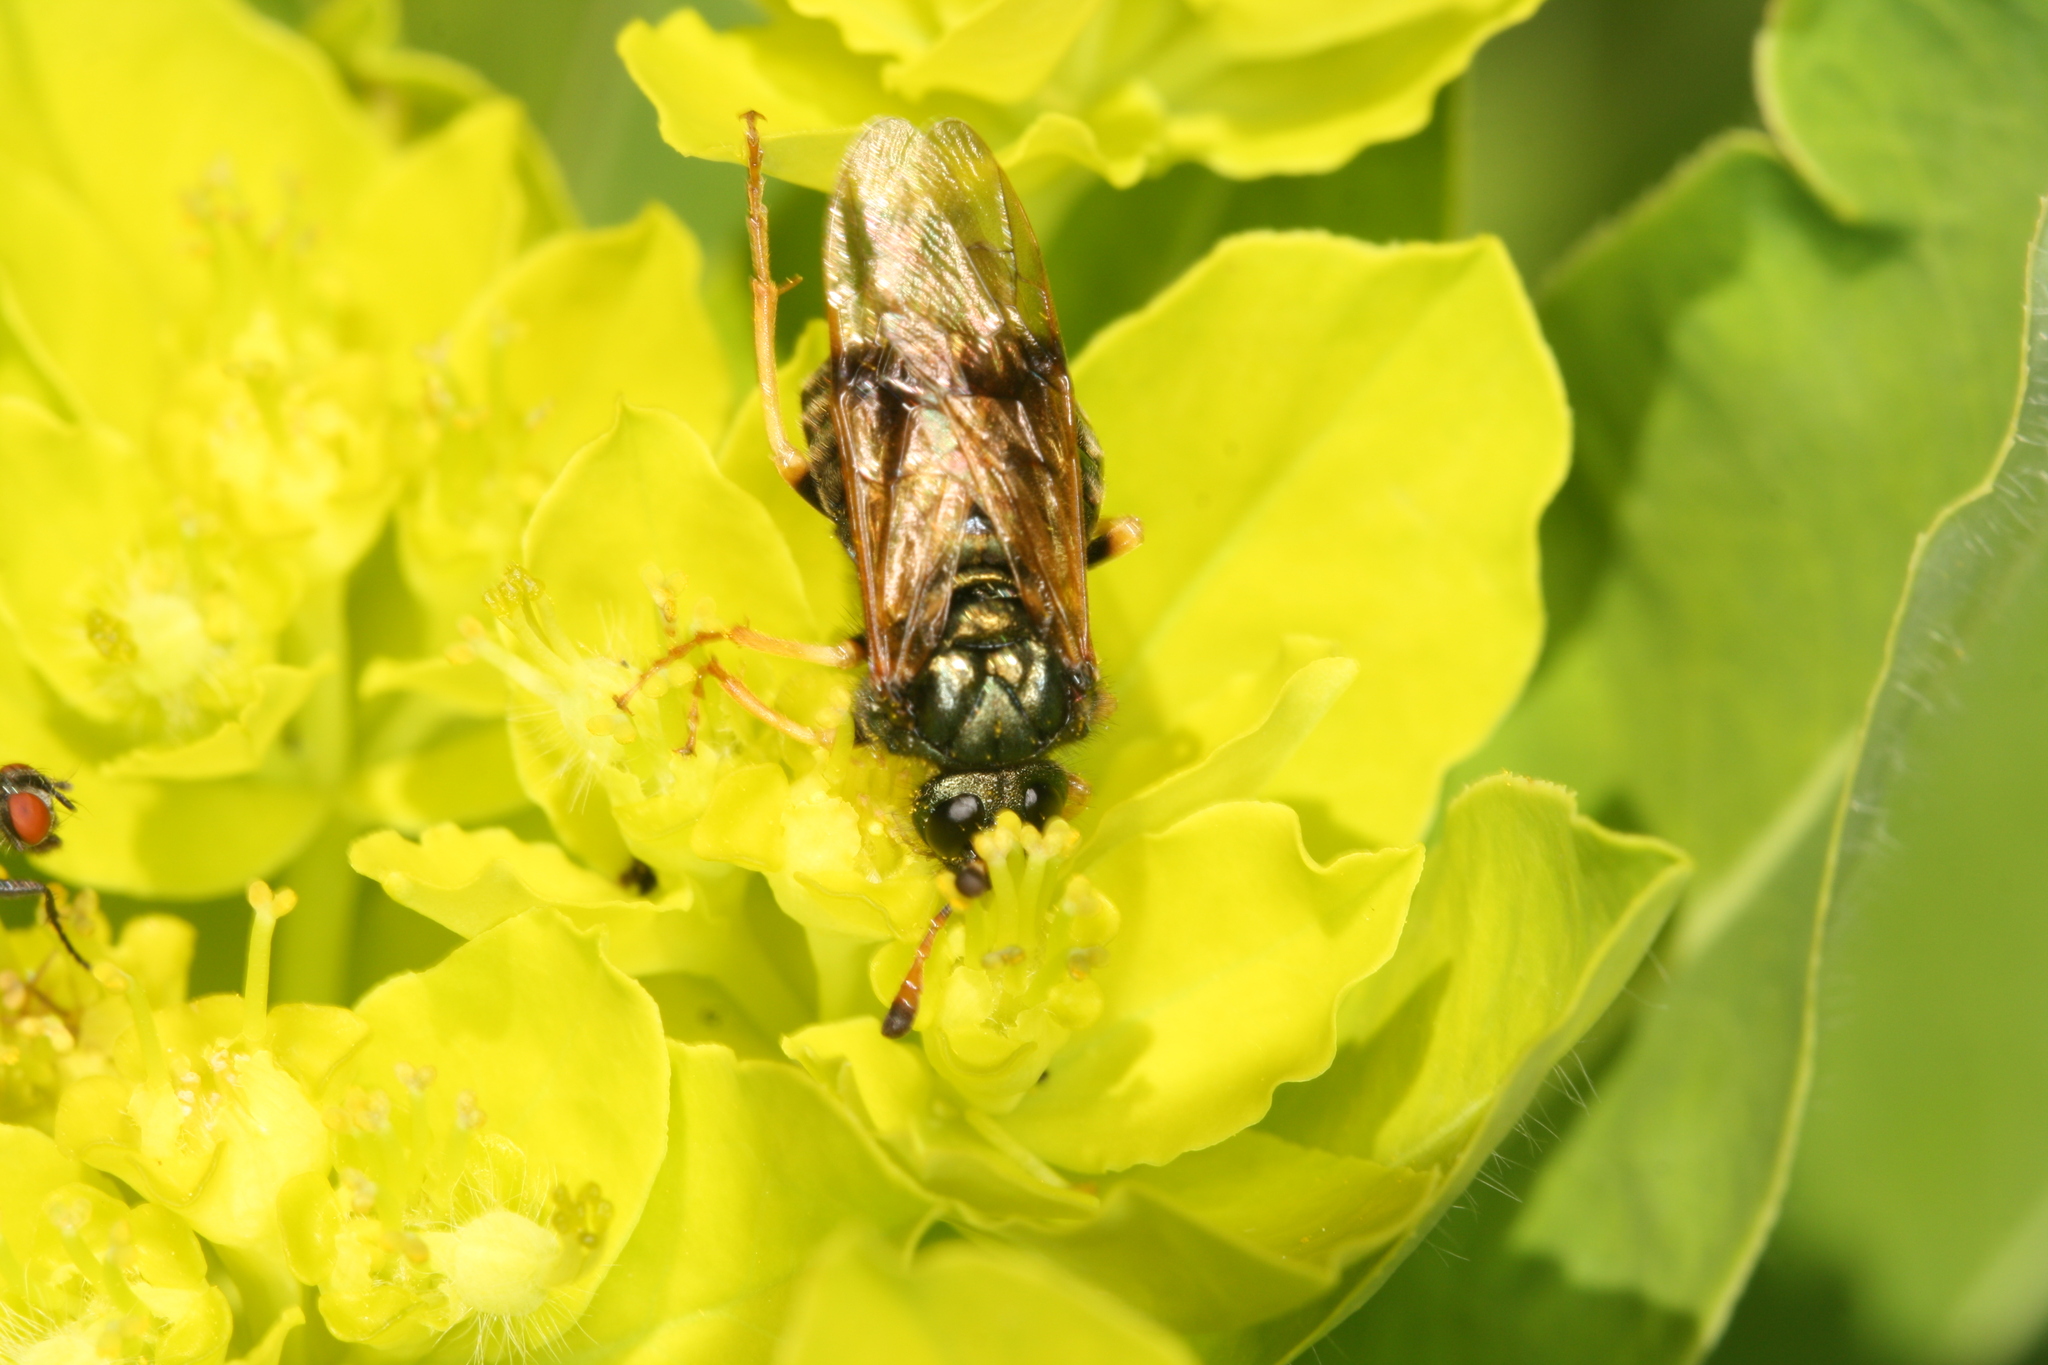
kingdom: Animalia
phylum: Arthropoda
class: Insecta
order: Hymenoptera
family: Cimbicidae
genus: Abia
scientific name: Abia fulgens
